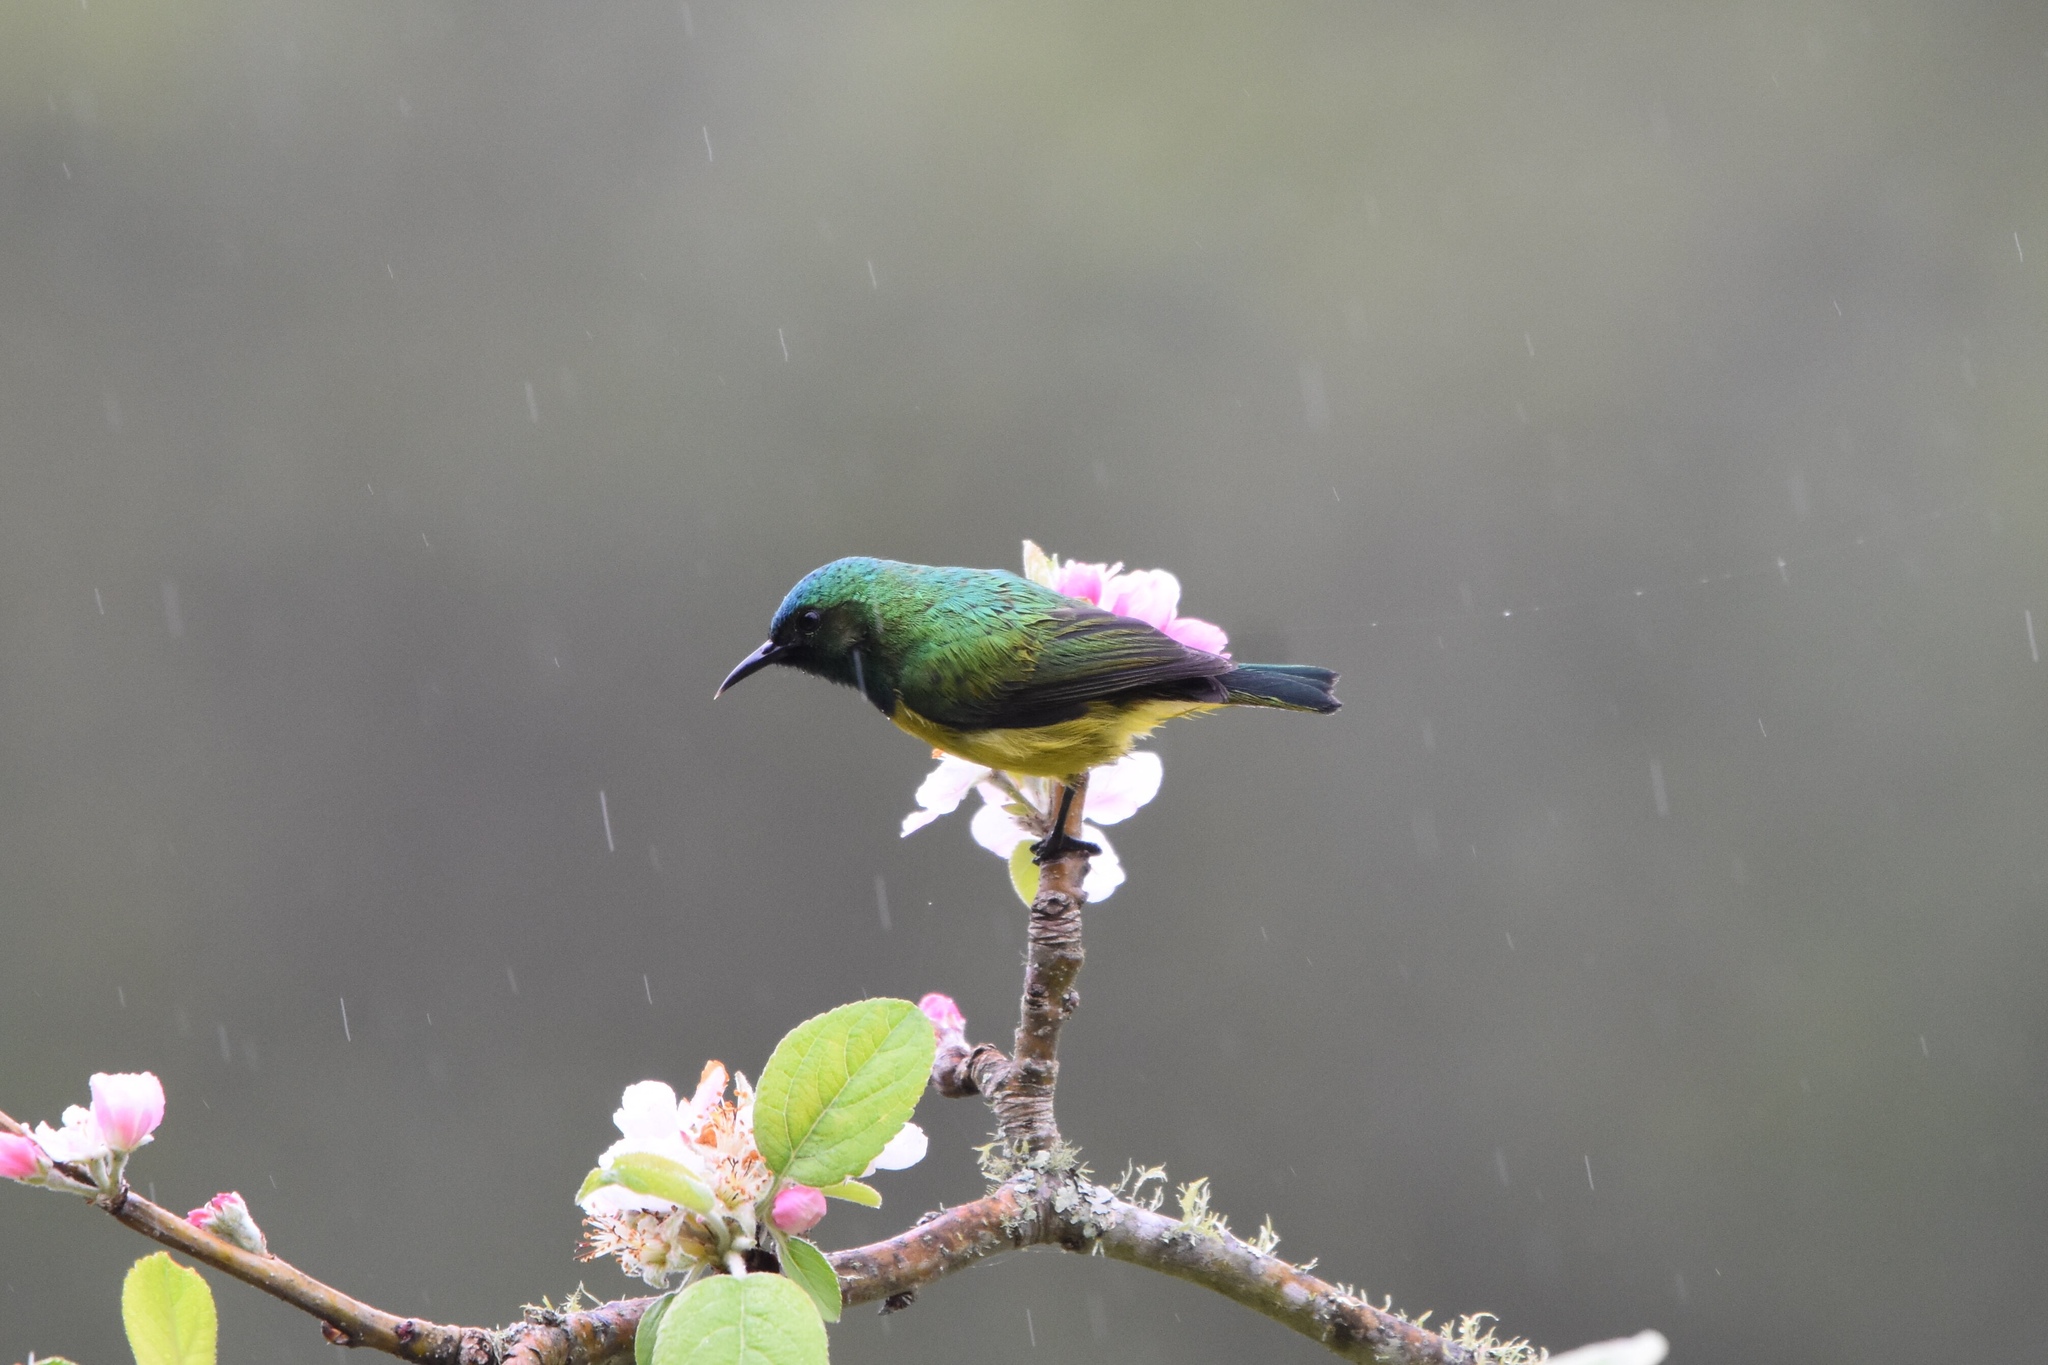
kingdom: Animalia
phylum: Chordata
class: Aves
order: Passeriformes
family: Nectariniidae
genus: Hedydipna
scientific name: Hedydipna collaris
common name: Collared sunbird
